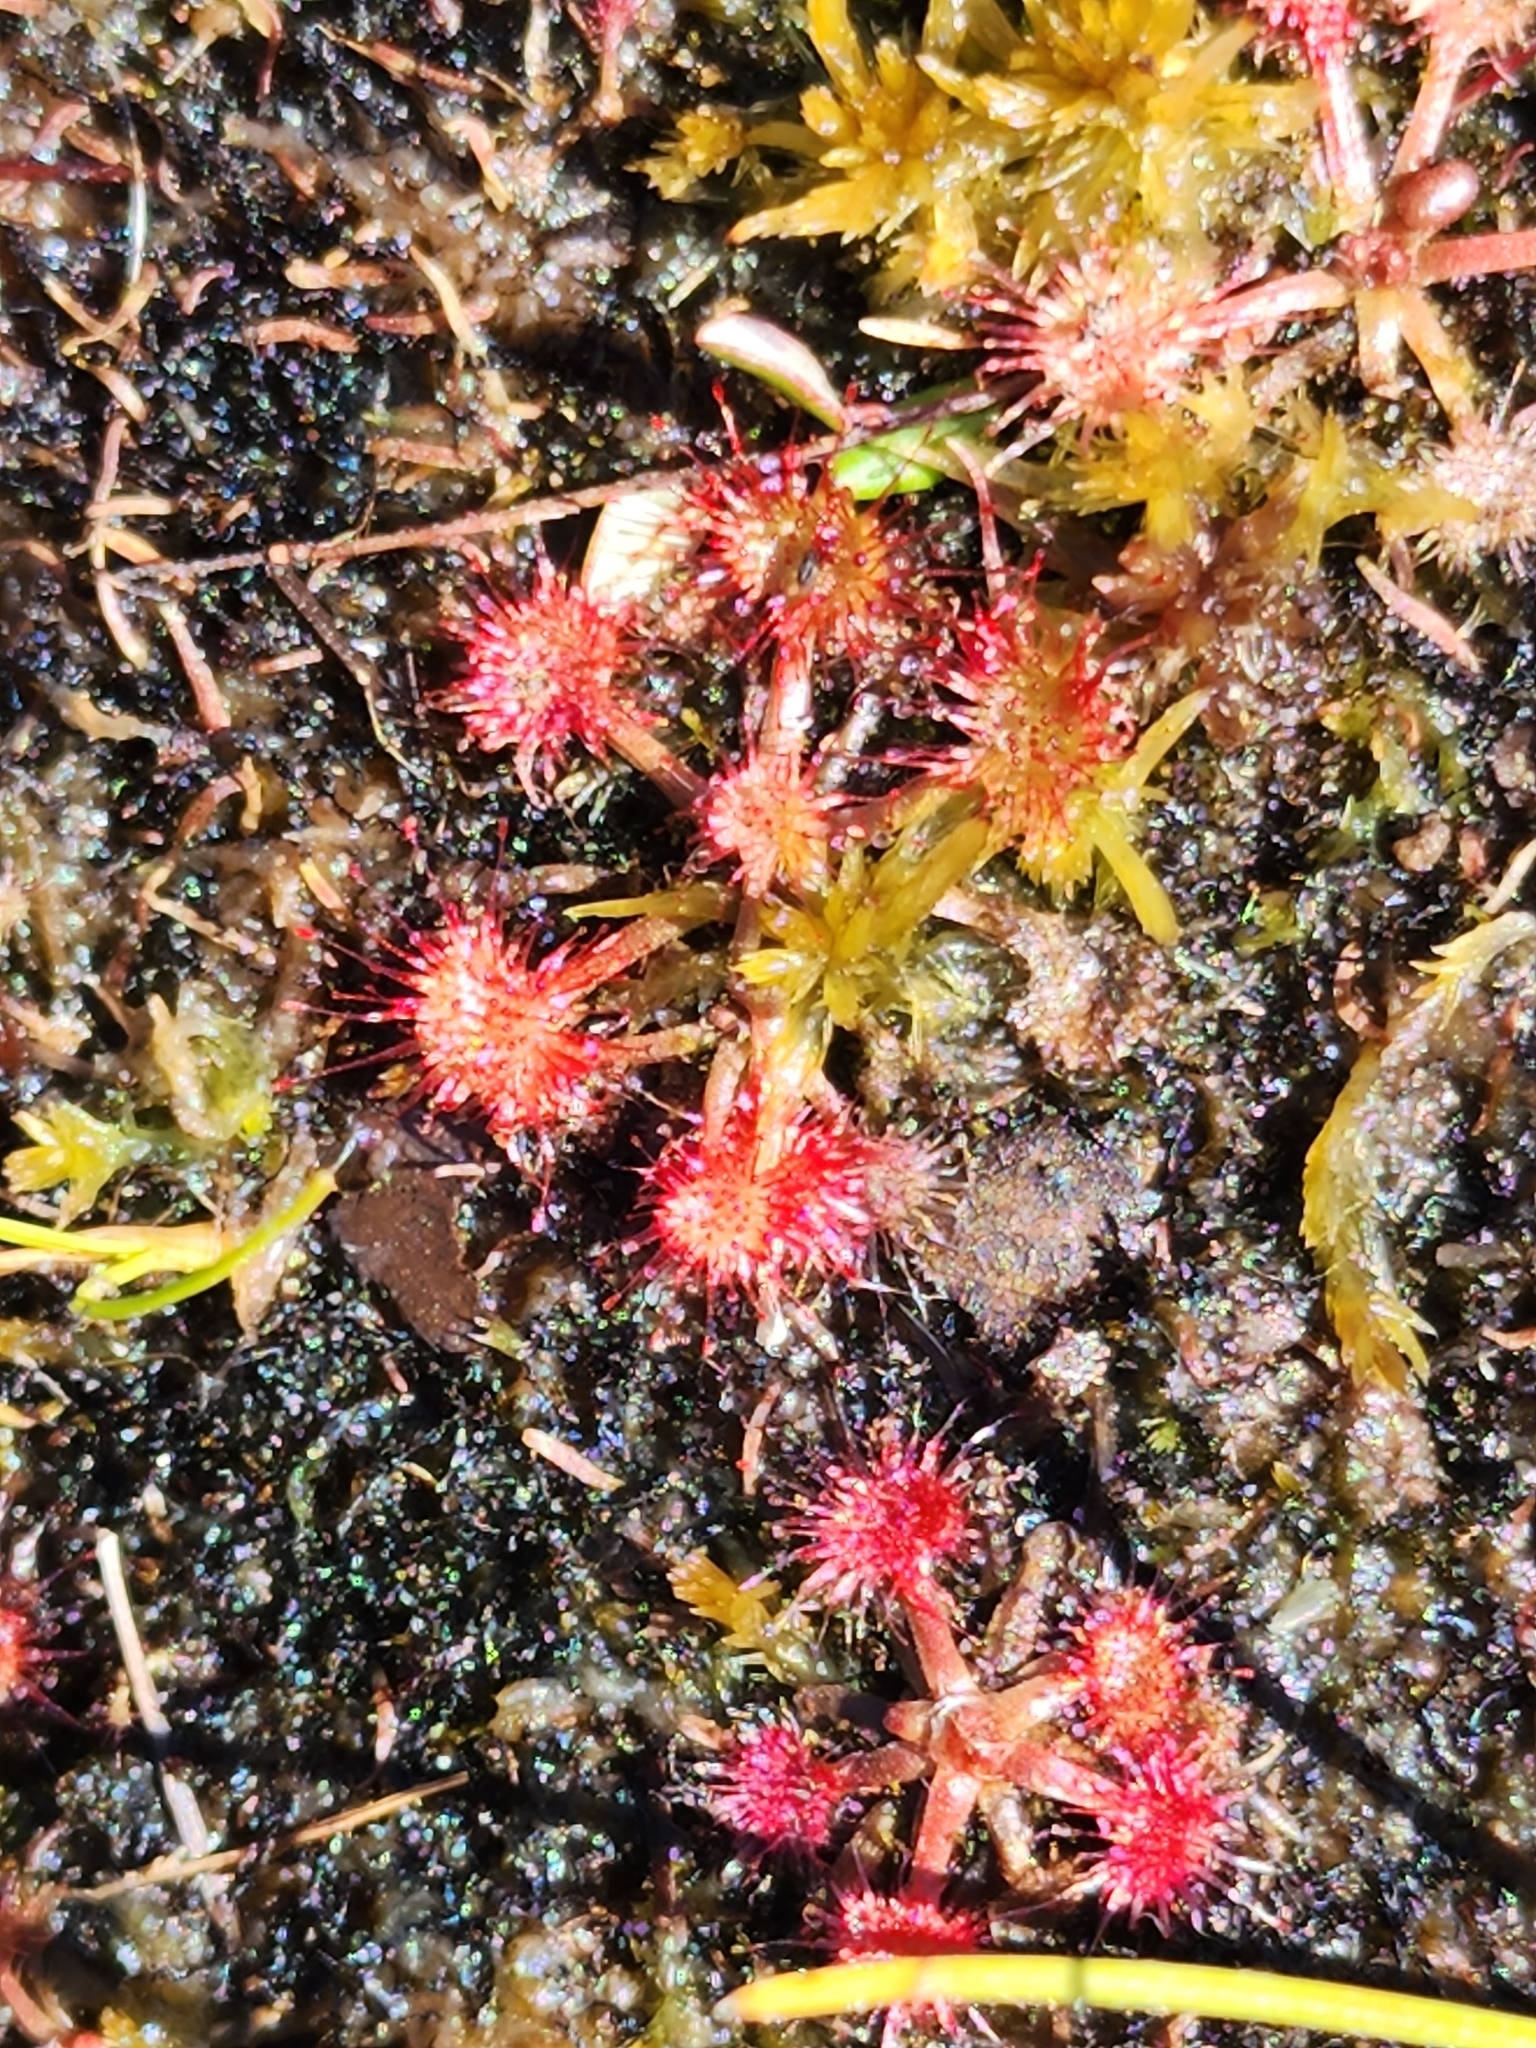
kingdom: Plantae
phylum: Tracheophyta
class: Magnoliopsida
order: Caryophyllales
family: Droseraceae
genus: Drosera
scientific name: Drosera rotundifolia
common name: Round-leaved sundew
